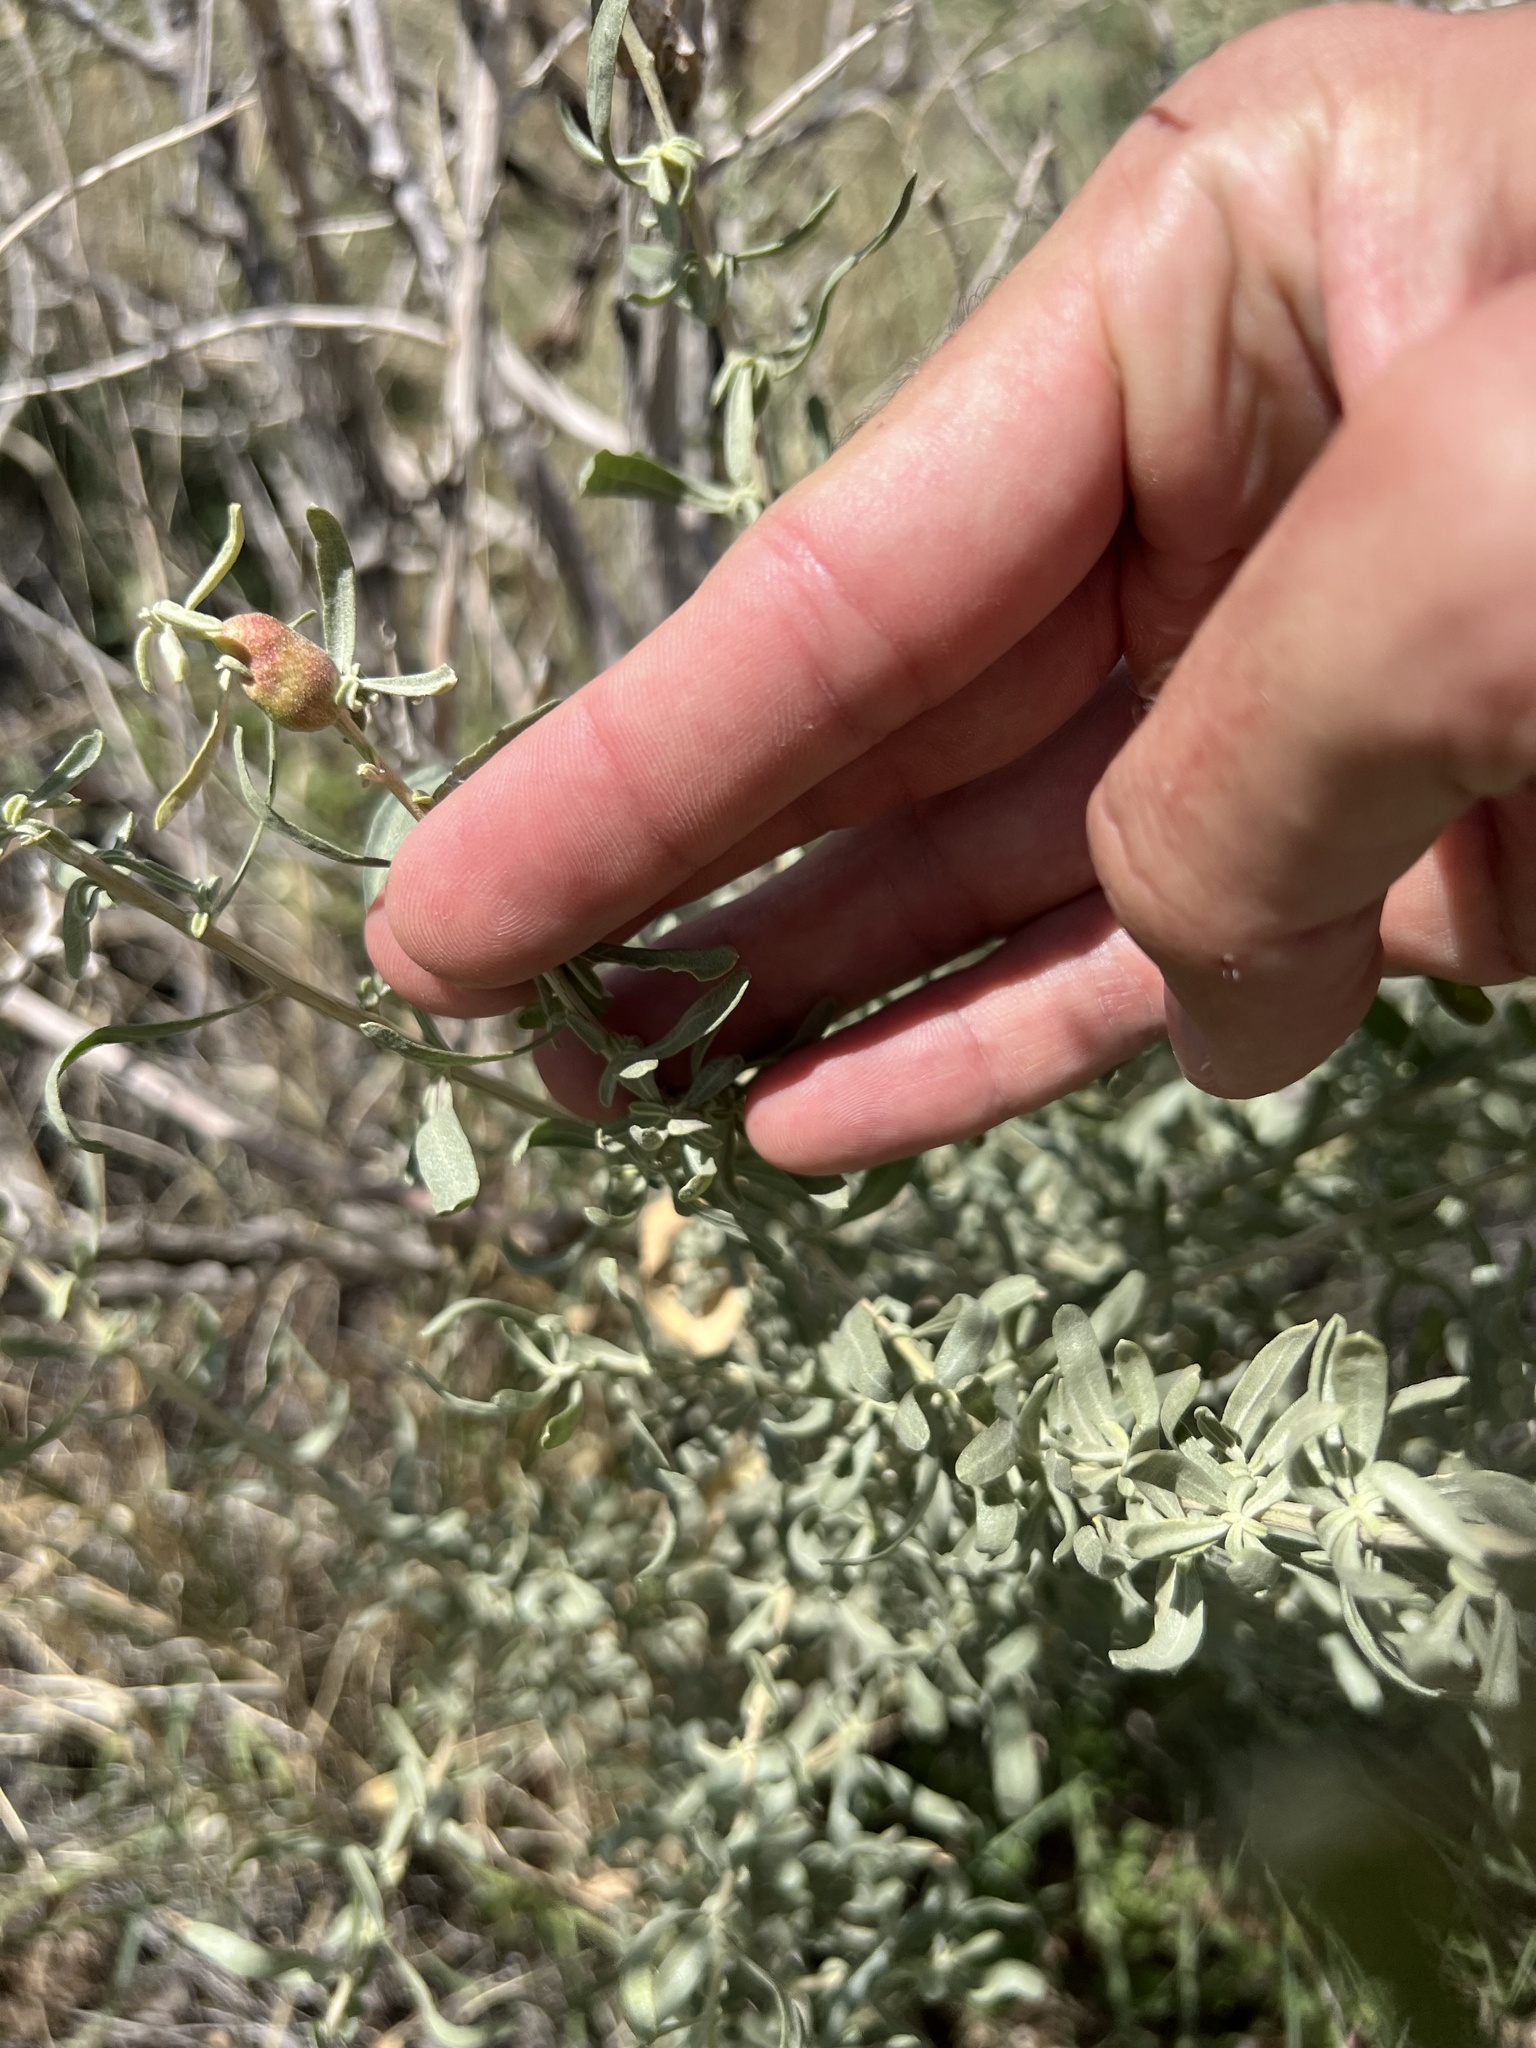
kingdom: Animalia
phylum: Arthropoda
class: Insecta
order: Diptera
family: Cecidomyiidae
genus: Asphondylia
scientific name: Asphondylia atriplicis
